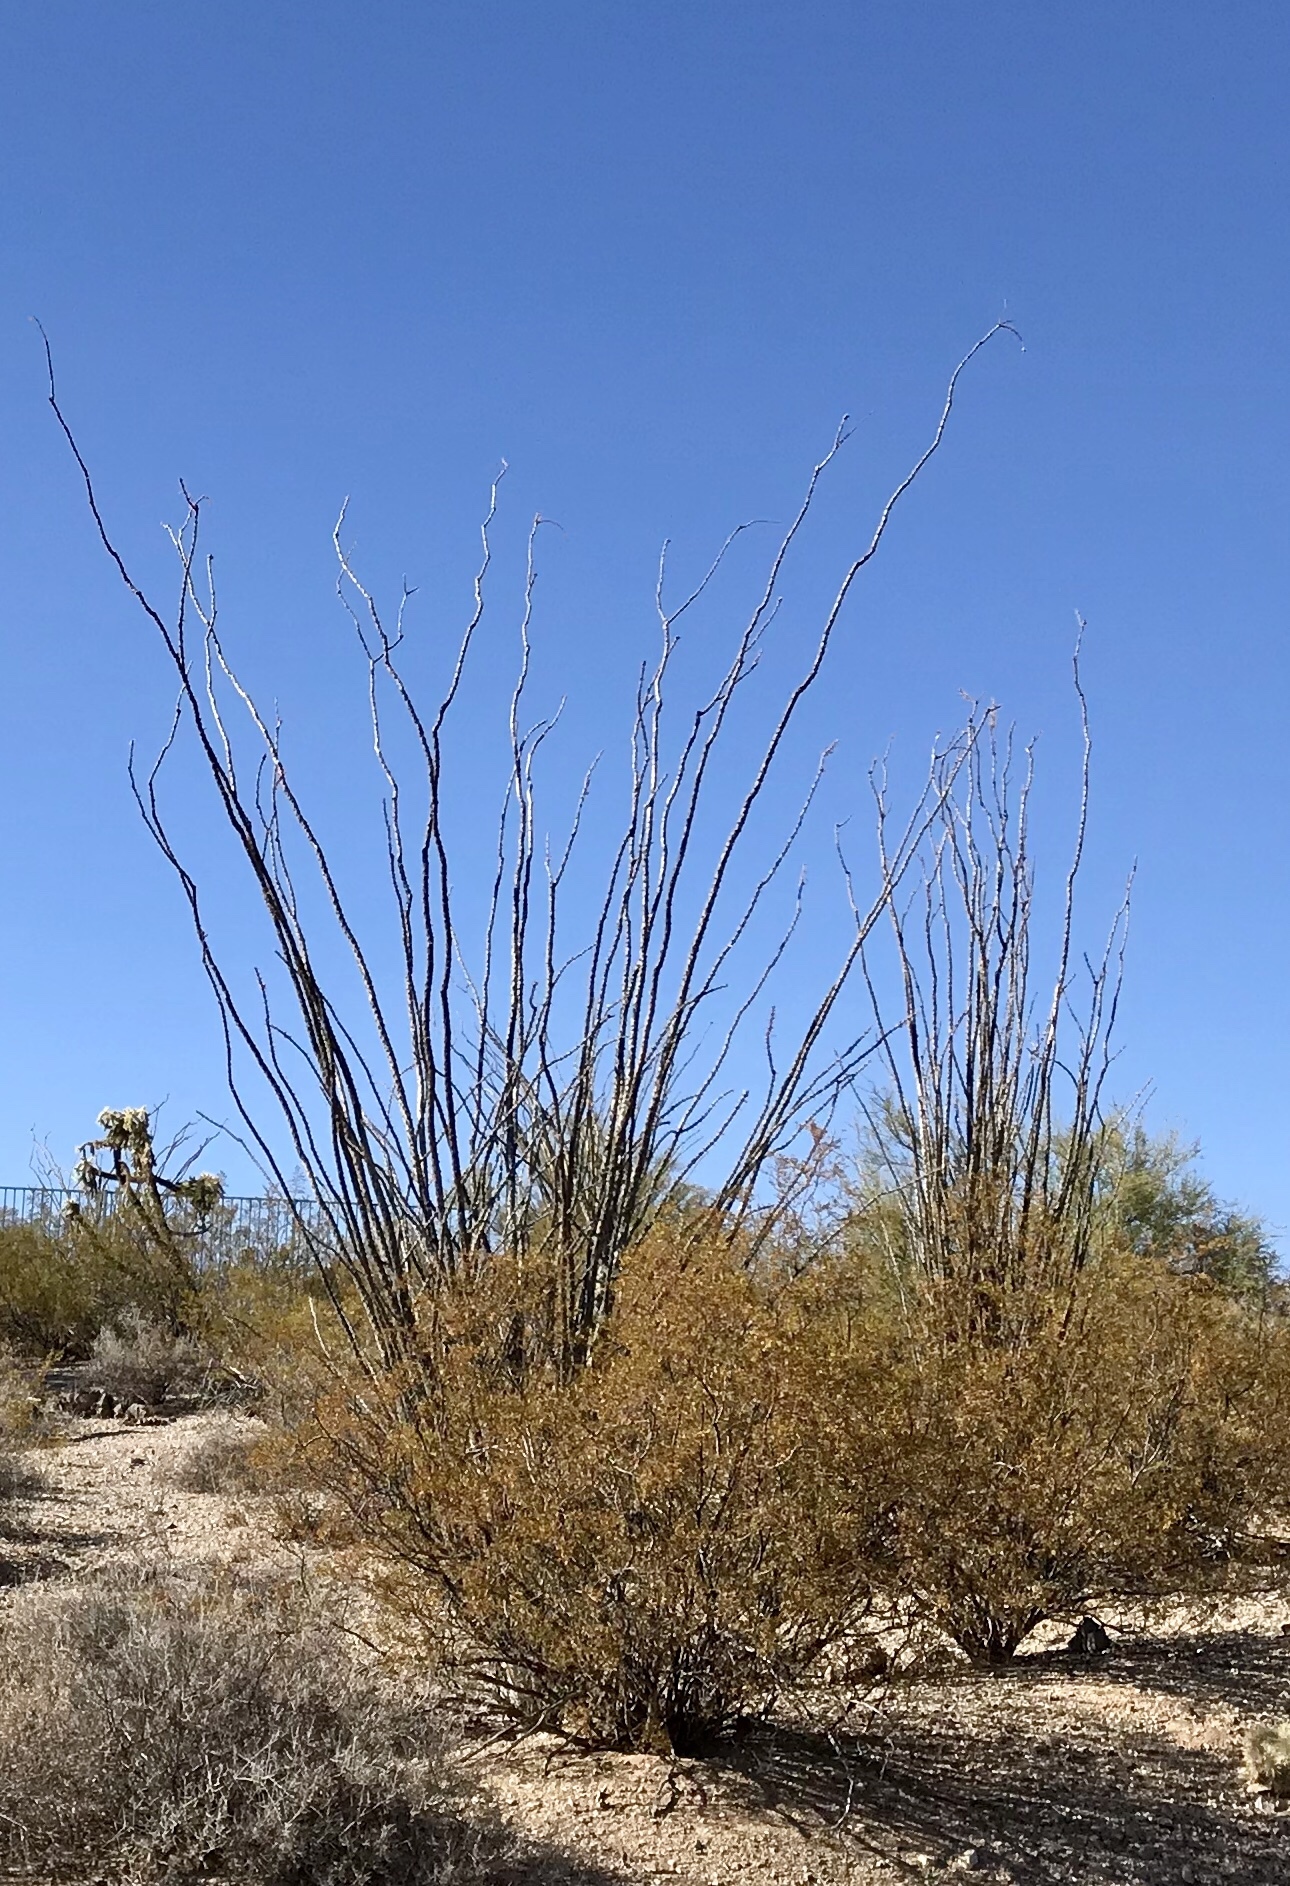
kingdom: Plantae
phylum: Tracheophyta
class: Magnoliopsida
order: Ericales
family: Fouquieriaceae
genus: Fouquieria
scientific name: Fouquieria splendens
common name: Vine-cactus
